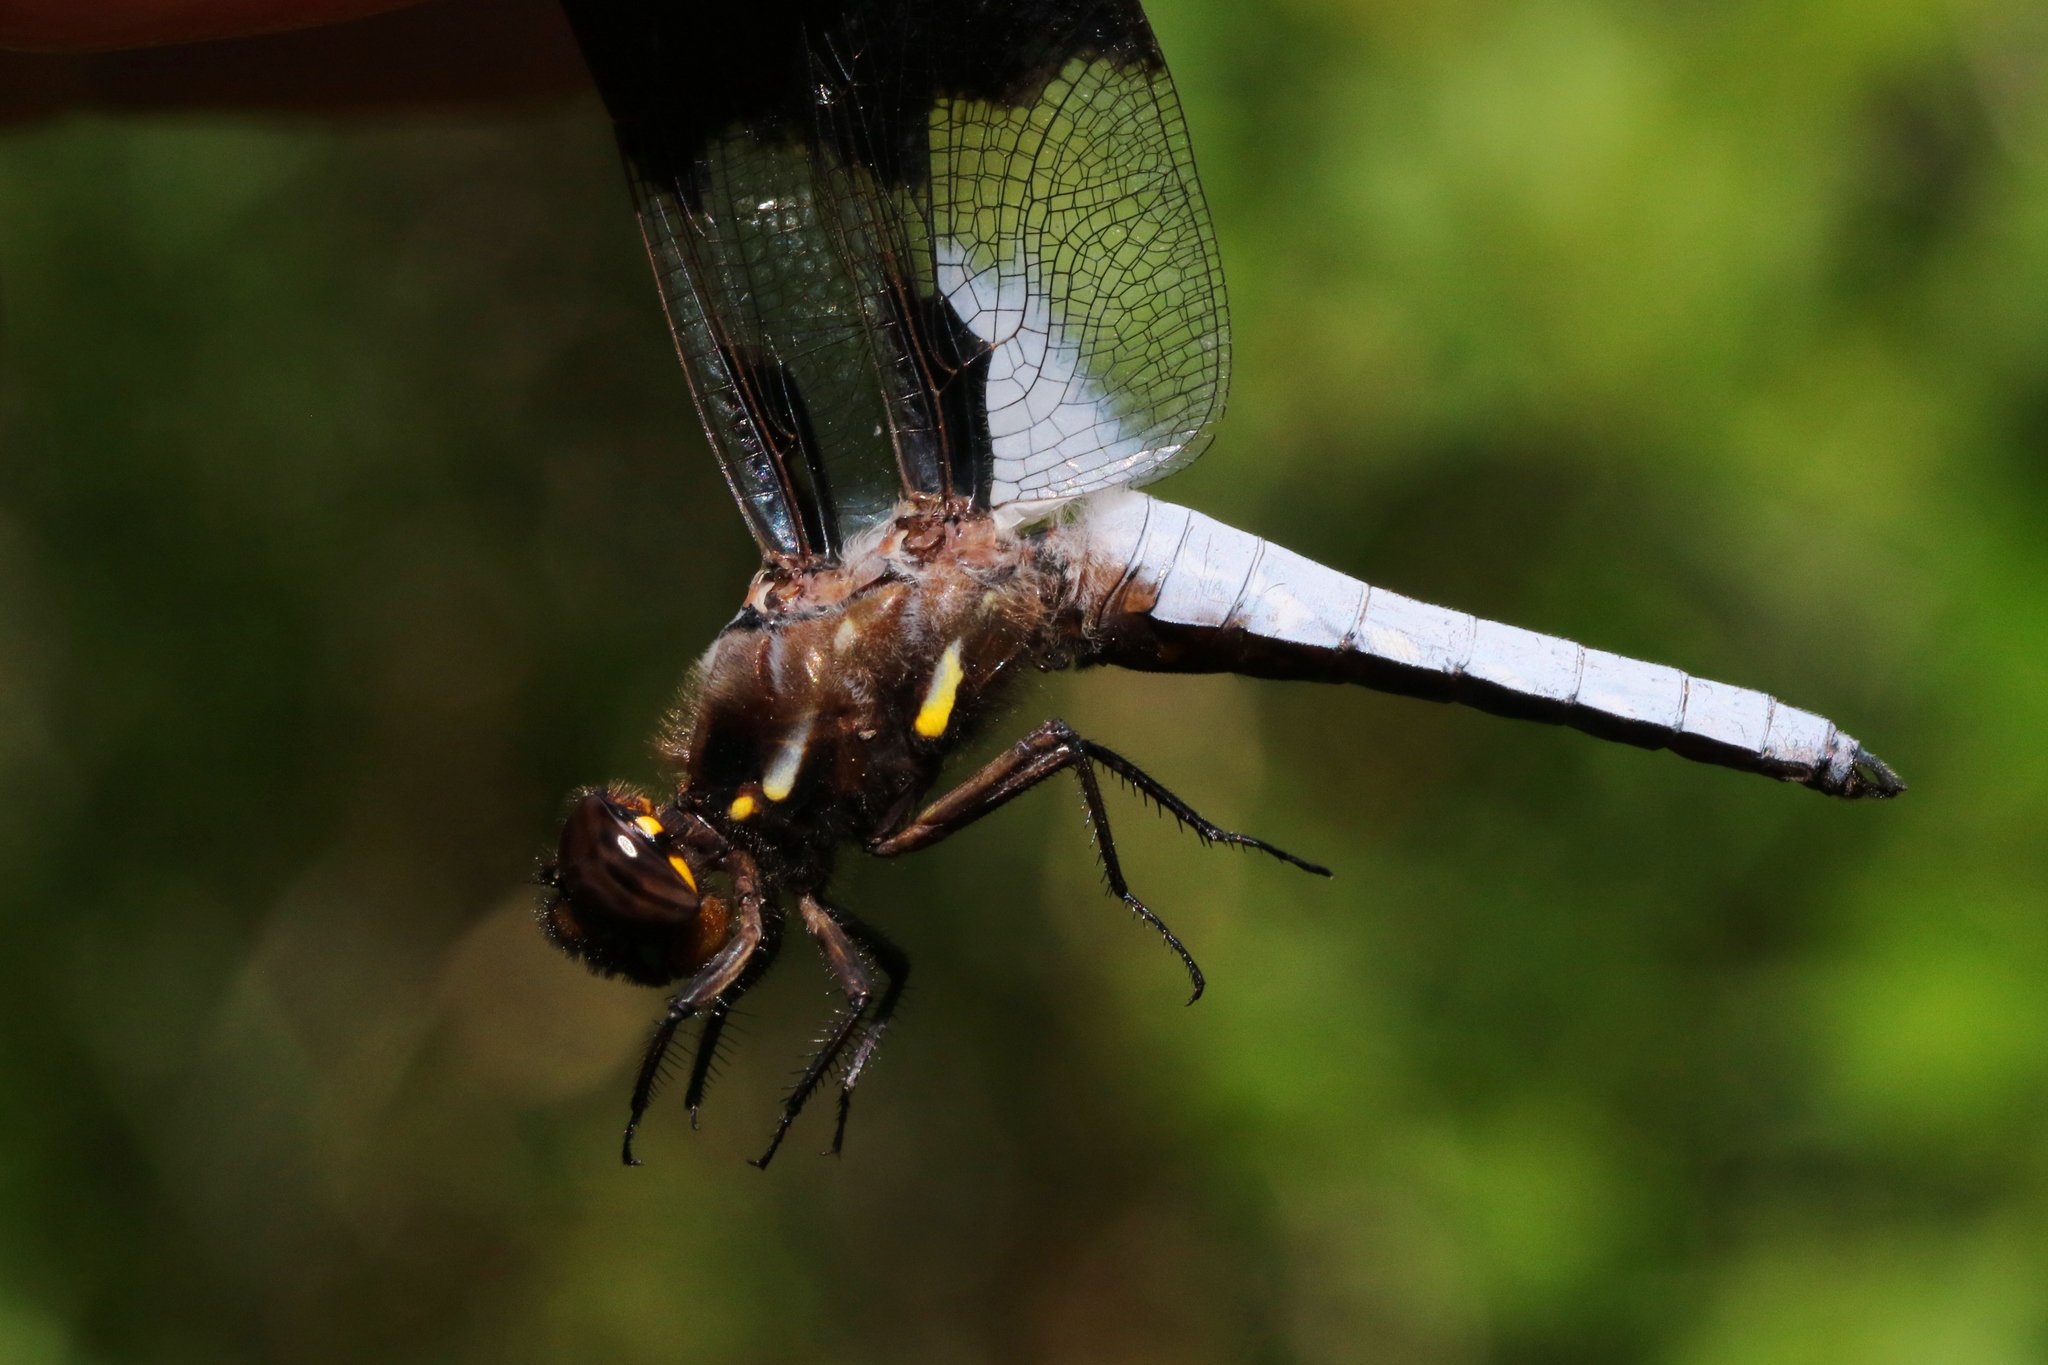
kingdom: Animalia
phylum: Arthropoda
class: Insecta
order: Odonata
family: Libellulidae
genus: Plathemis
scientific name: Plathemis lydia
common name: Common whitetail
